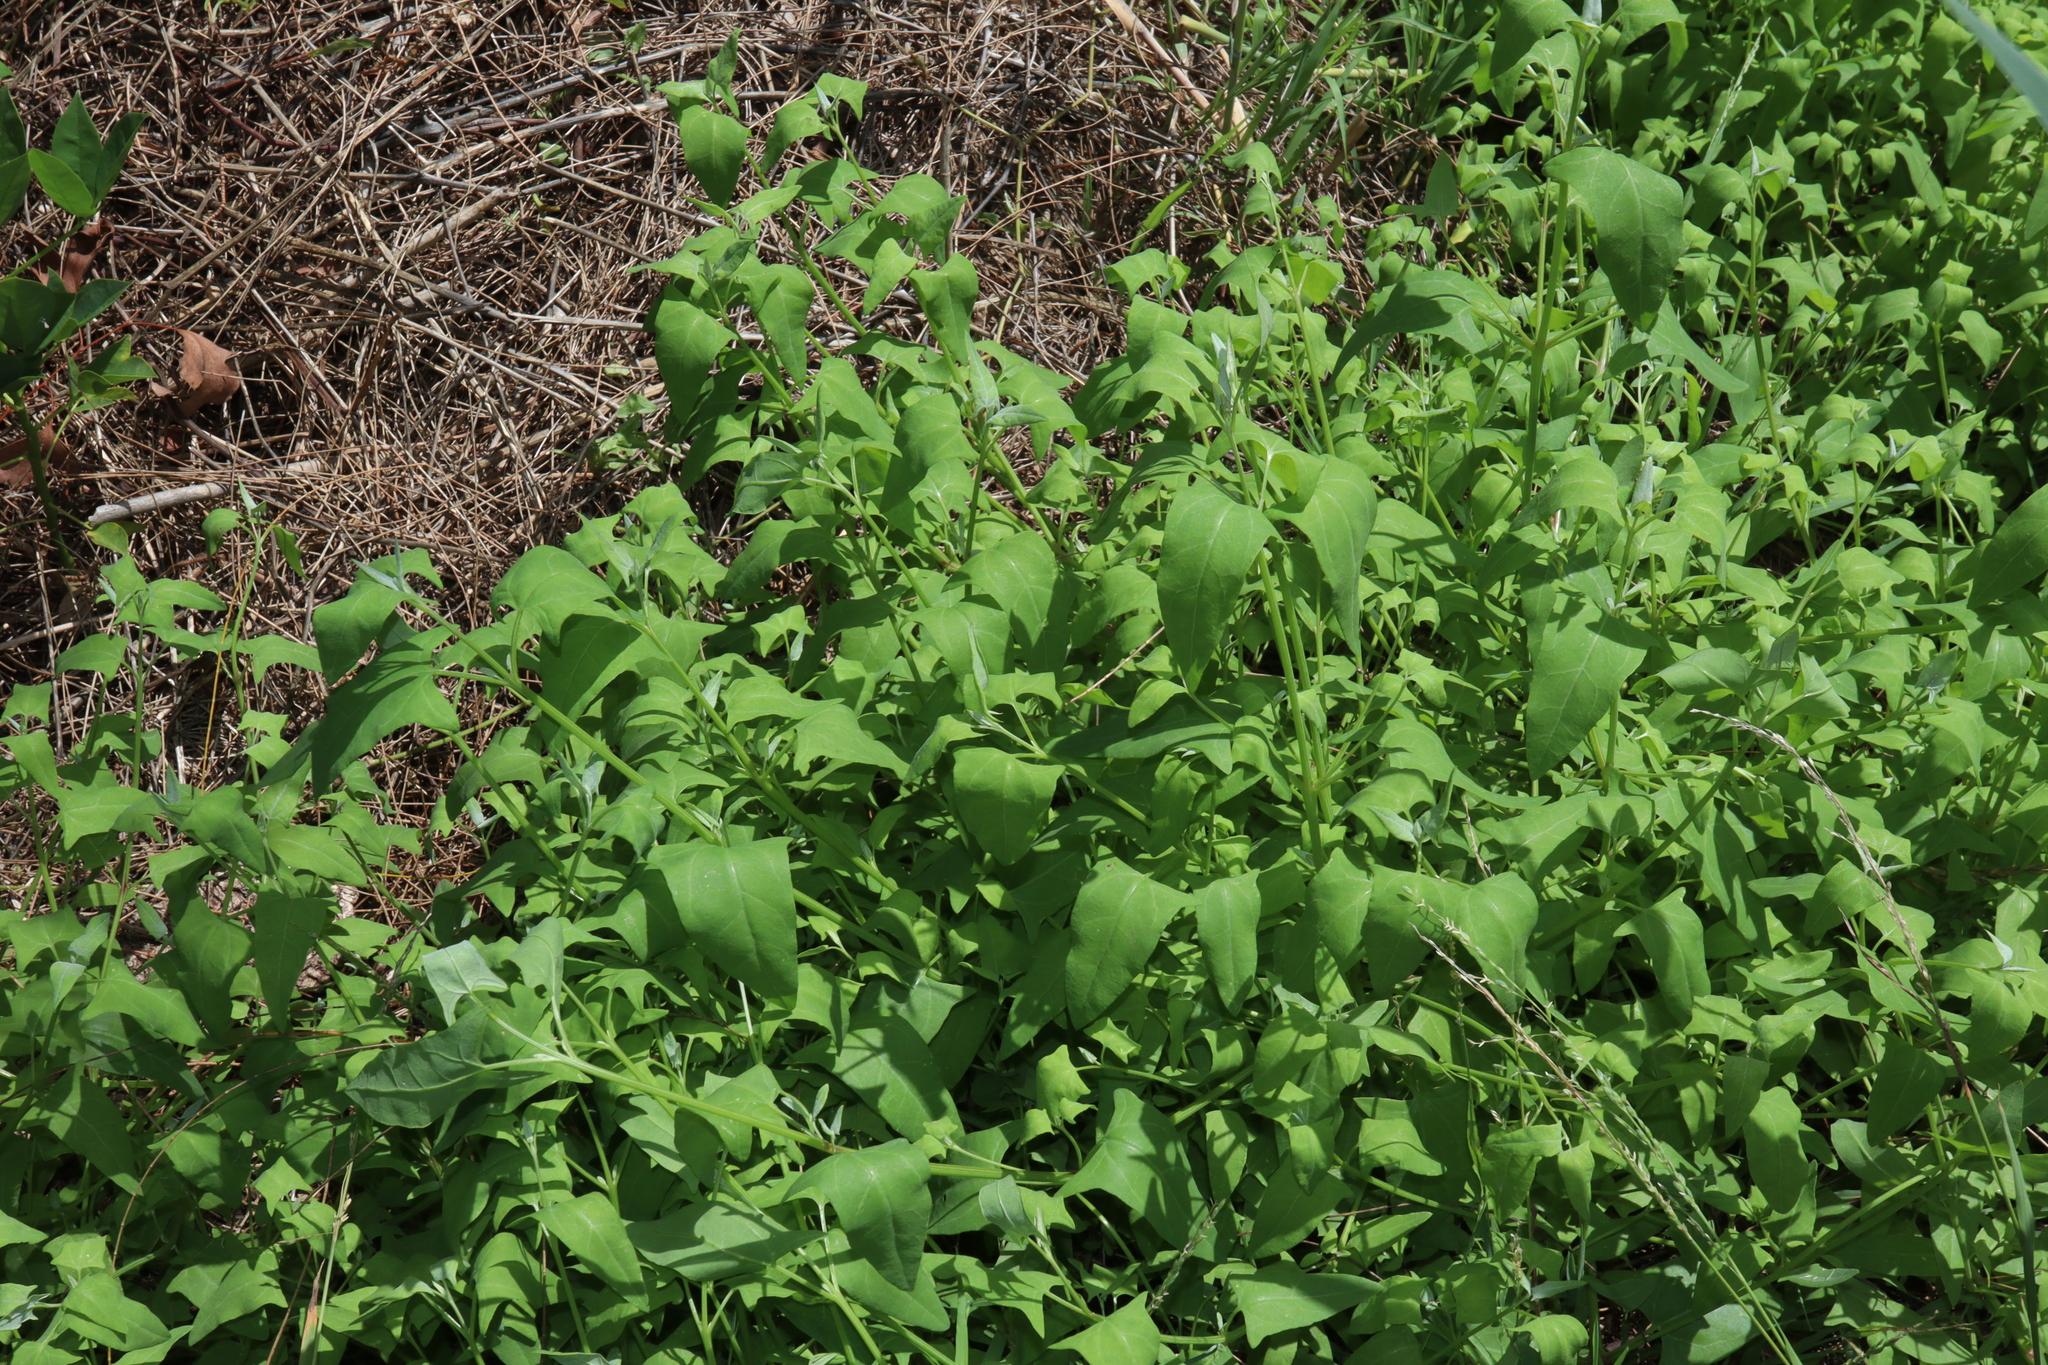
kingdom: Plantae
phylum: Tracheophyta
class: Magnoliopsida
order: Caryophyllales
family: Amaranthaceae
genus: Atriplex
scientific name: Atriplex prostrata
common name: Spear-leaved orache
